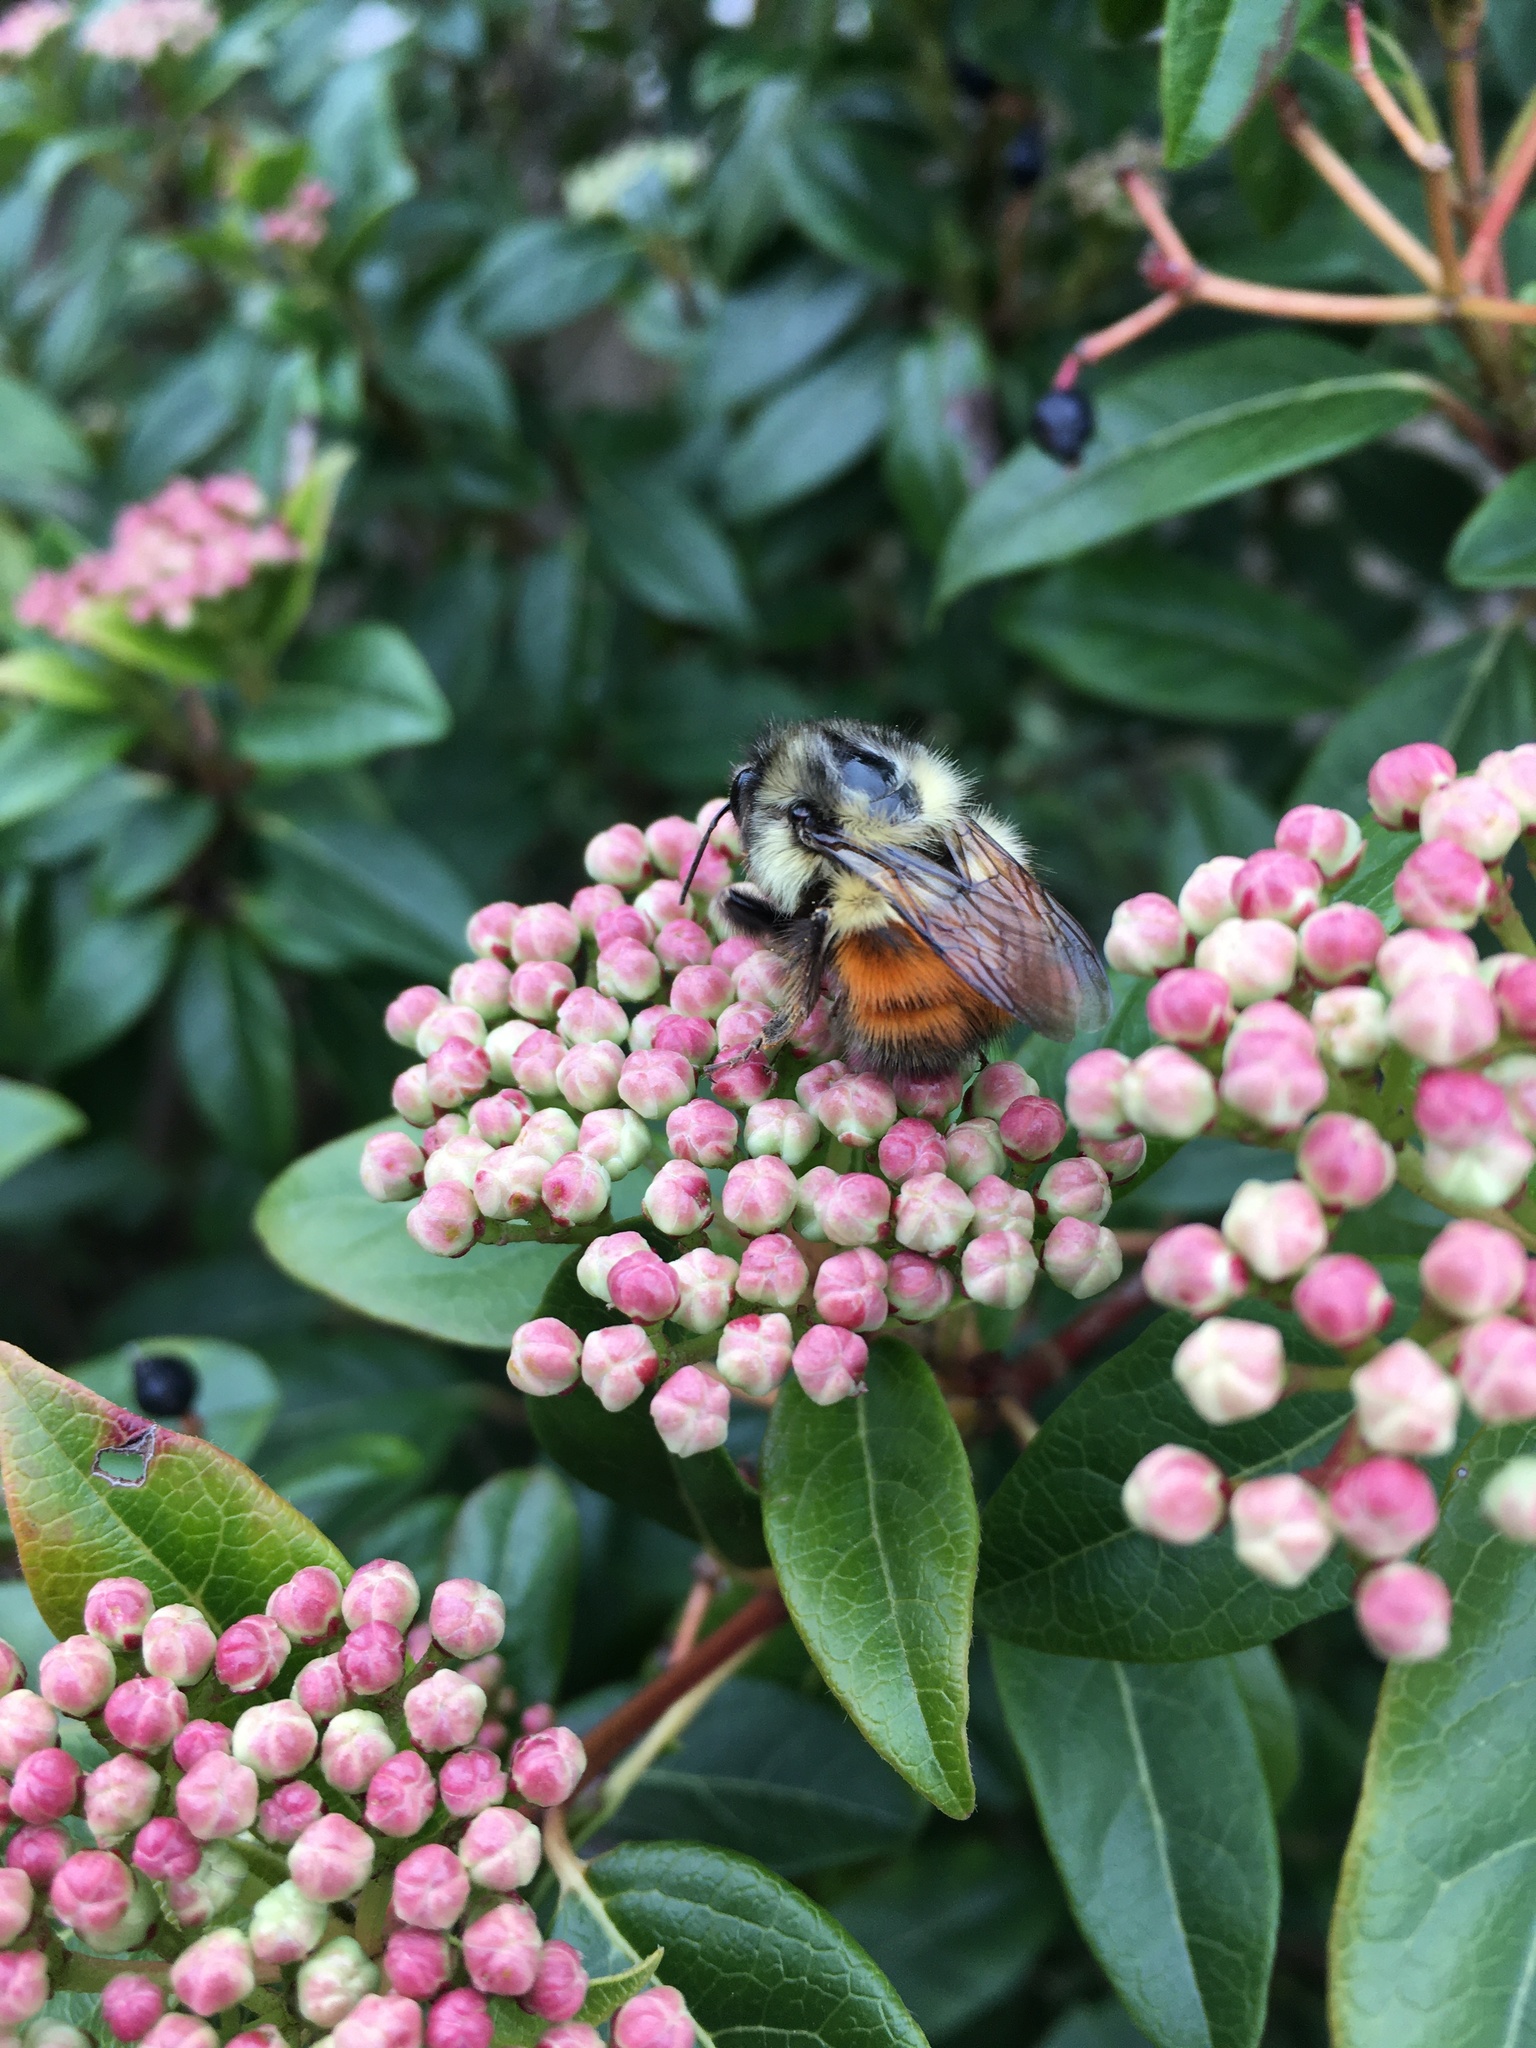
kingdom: Animalia
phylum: Arthropoda
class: Insecta
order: Hymenoptera
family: Apidae
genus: Bombus
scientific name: Bombus melanopygus
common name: Black tail bumble bee
